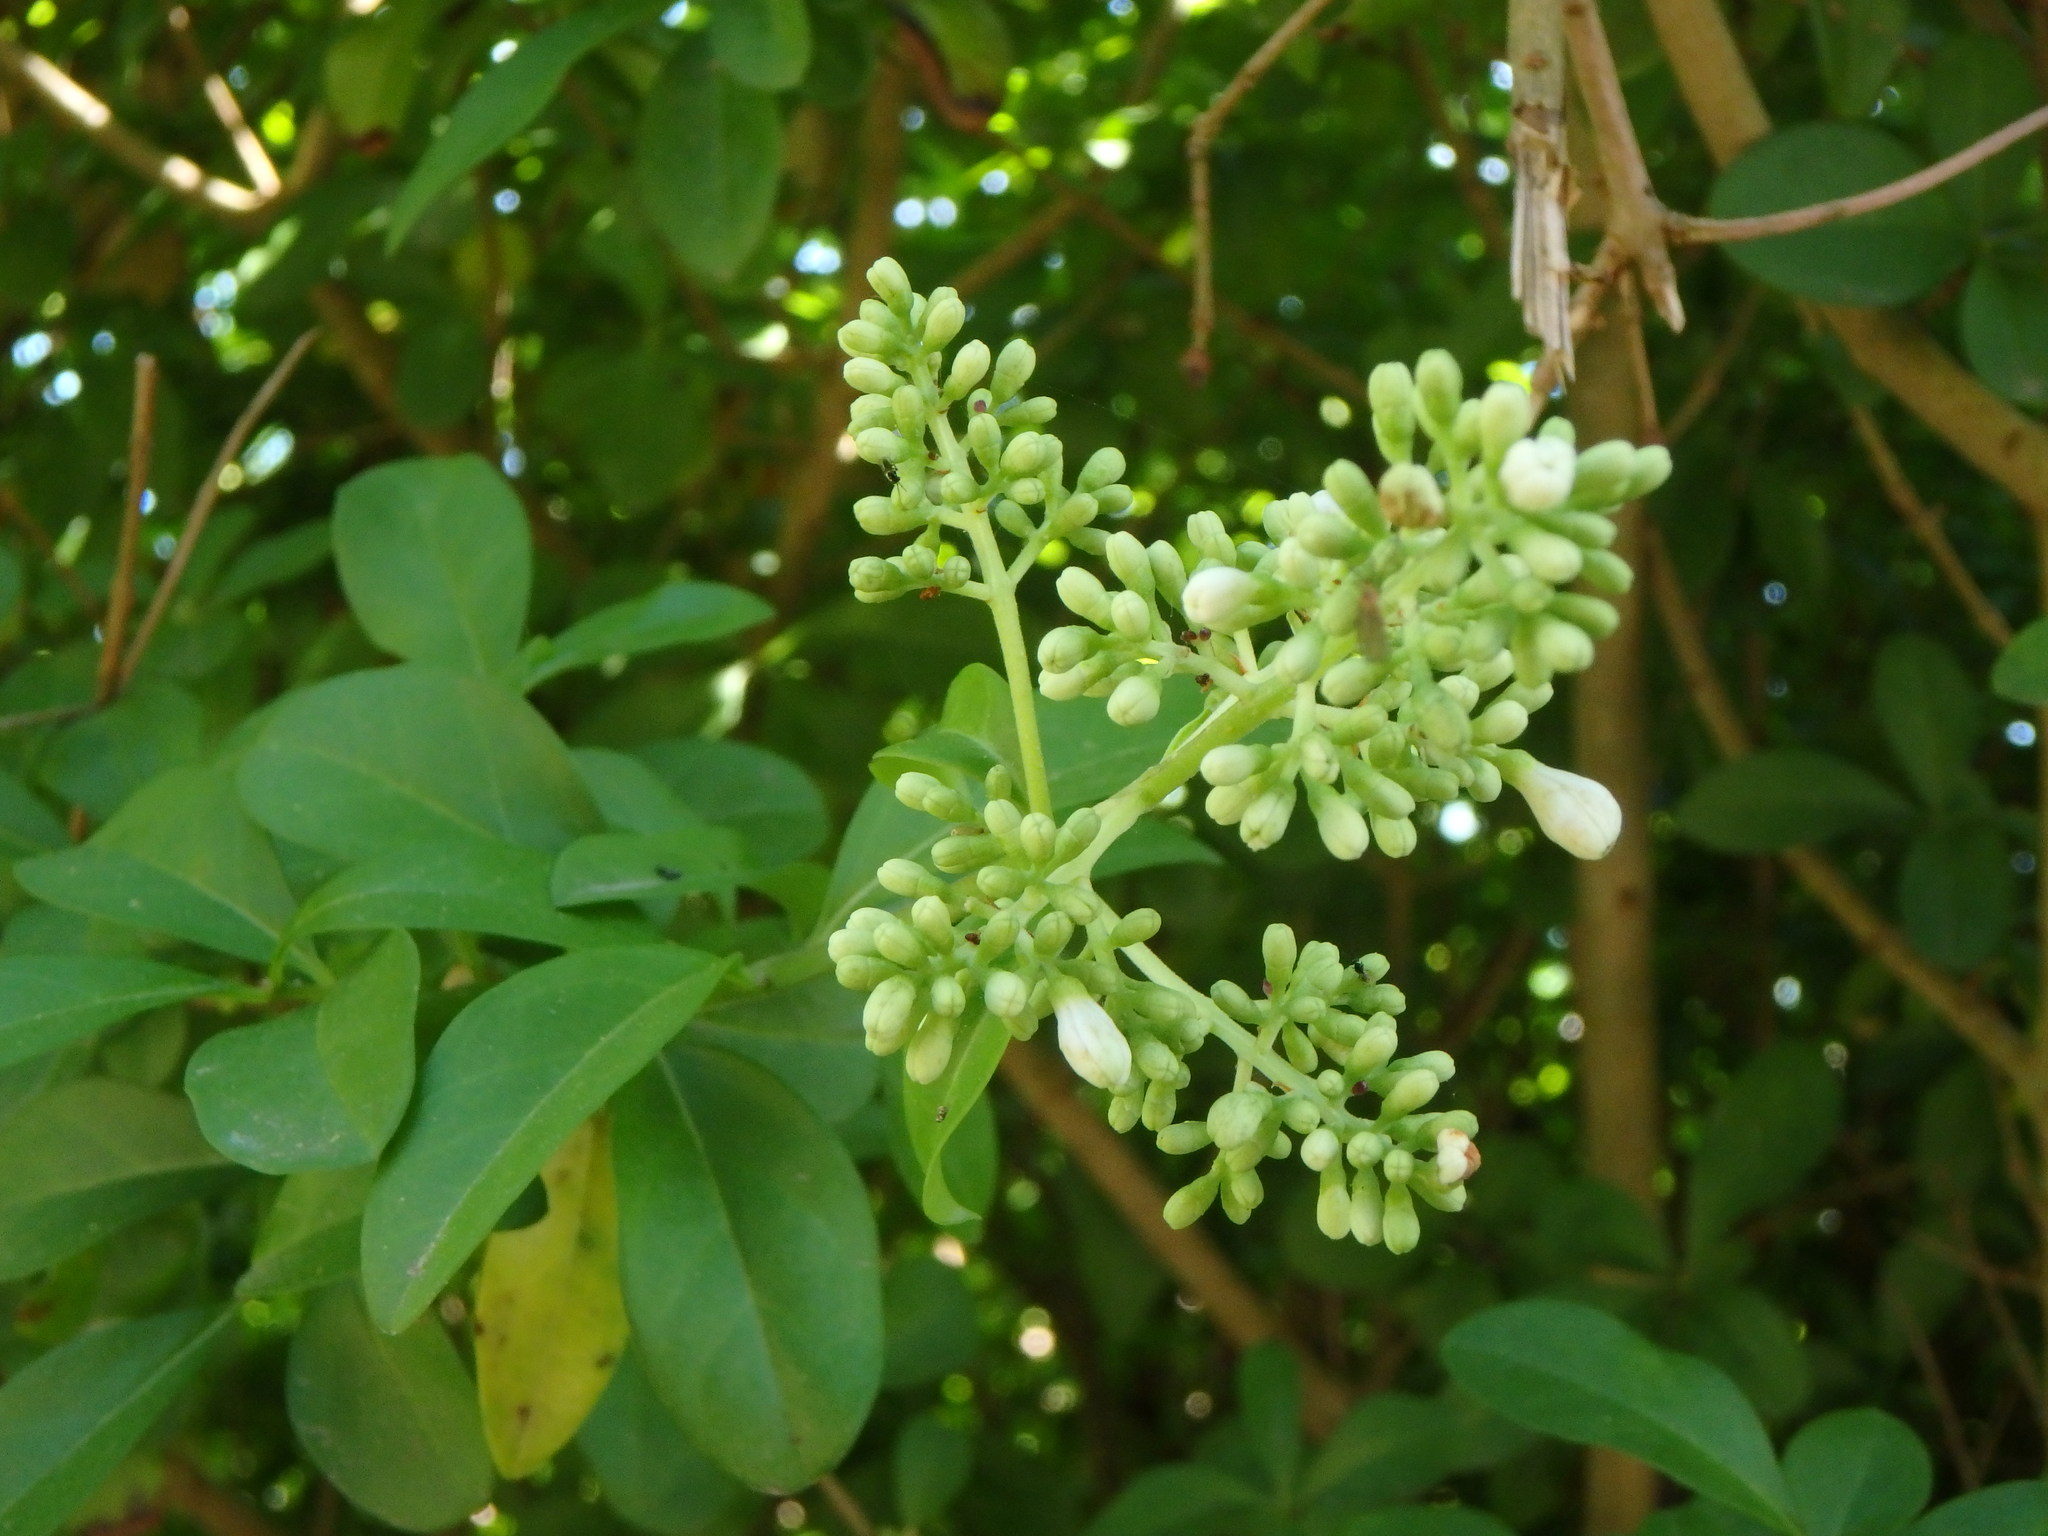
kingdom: Plantae
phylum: Tracheophyta
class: Magnoliopsida
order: Lamiales
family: Oleaceae
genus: Ligustrum
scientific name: Ligustrum vulgare
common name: Wild privet
